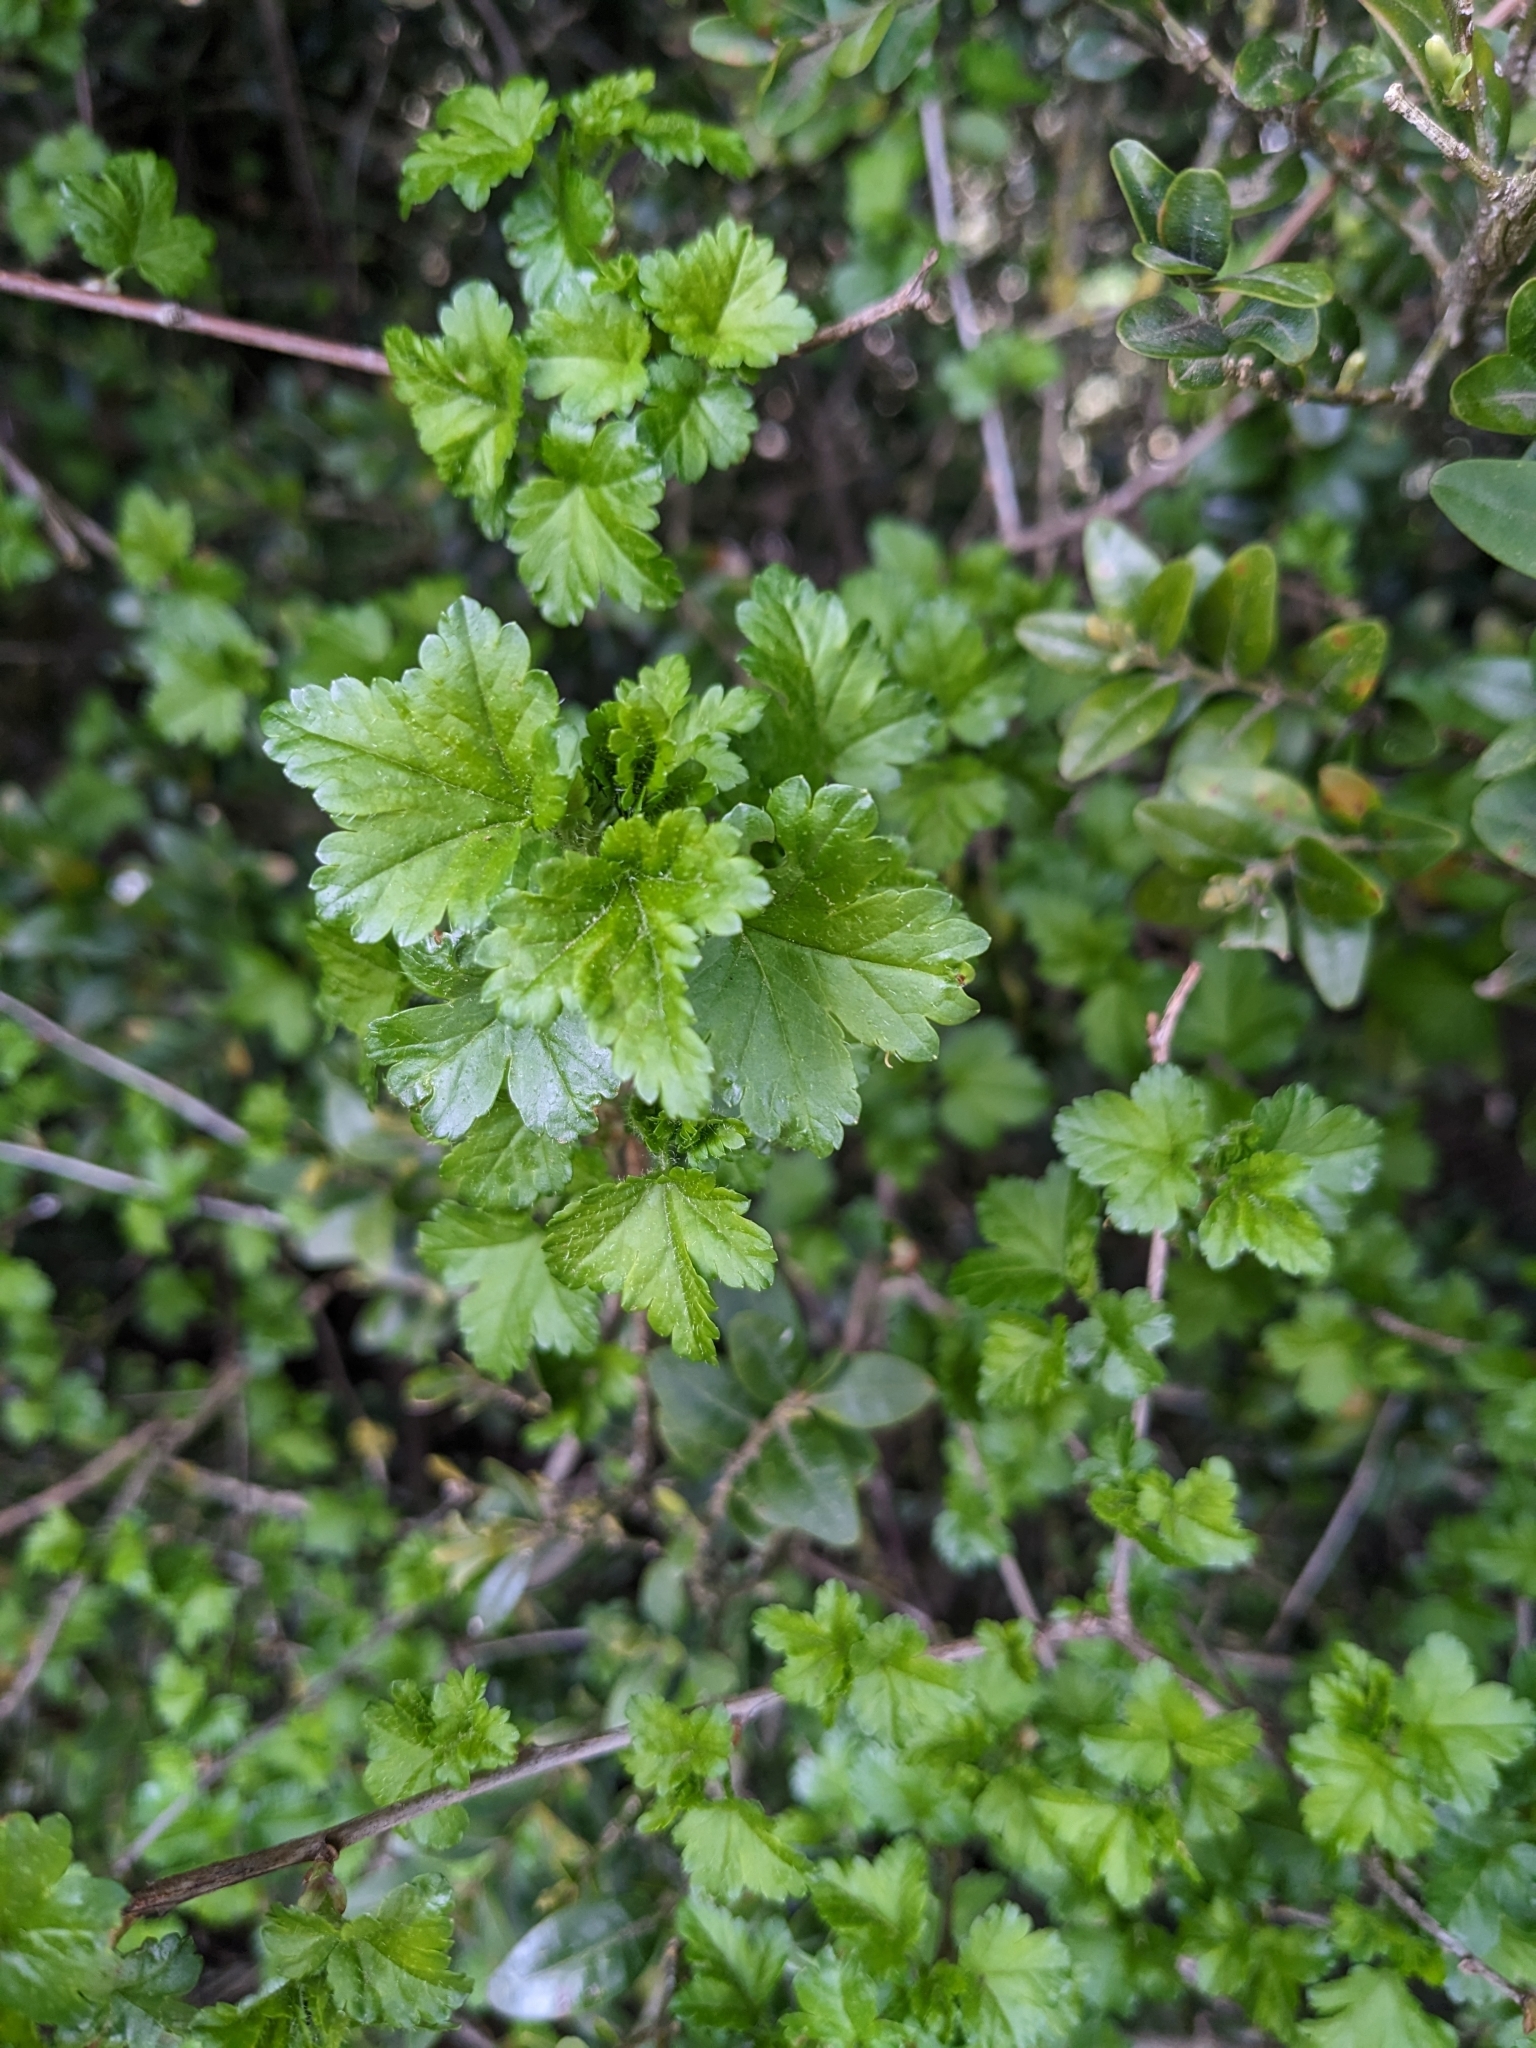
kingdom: Plantae
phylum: Tracheophyta
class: Magnoliopsida
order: Saxifragales
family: Grossulariaceae
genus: Ribes
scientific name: Ribes alpinum
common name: Alpine currant
